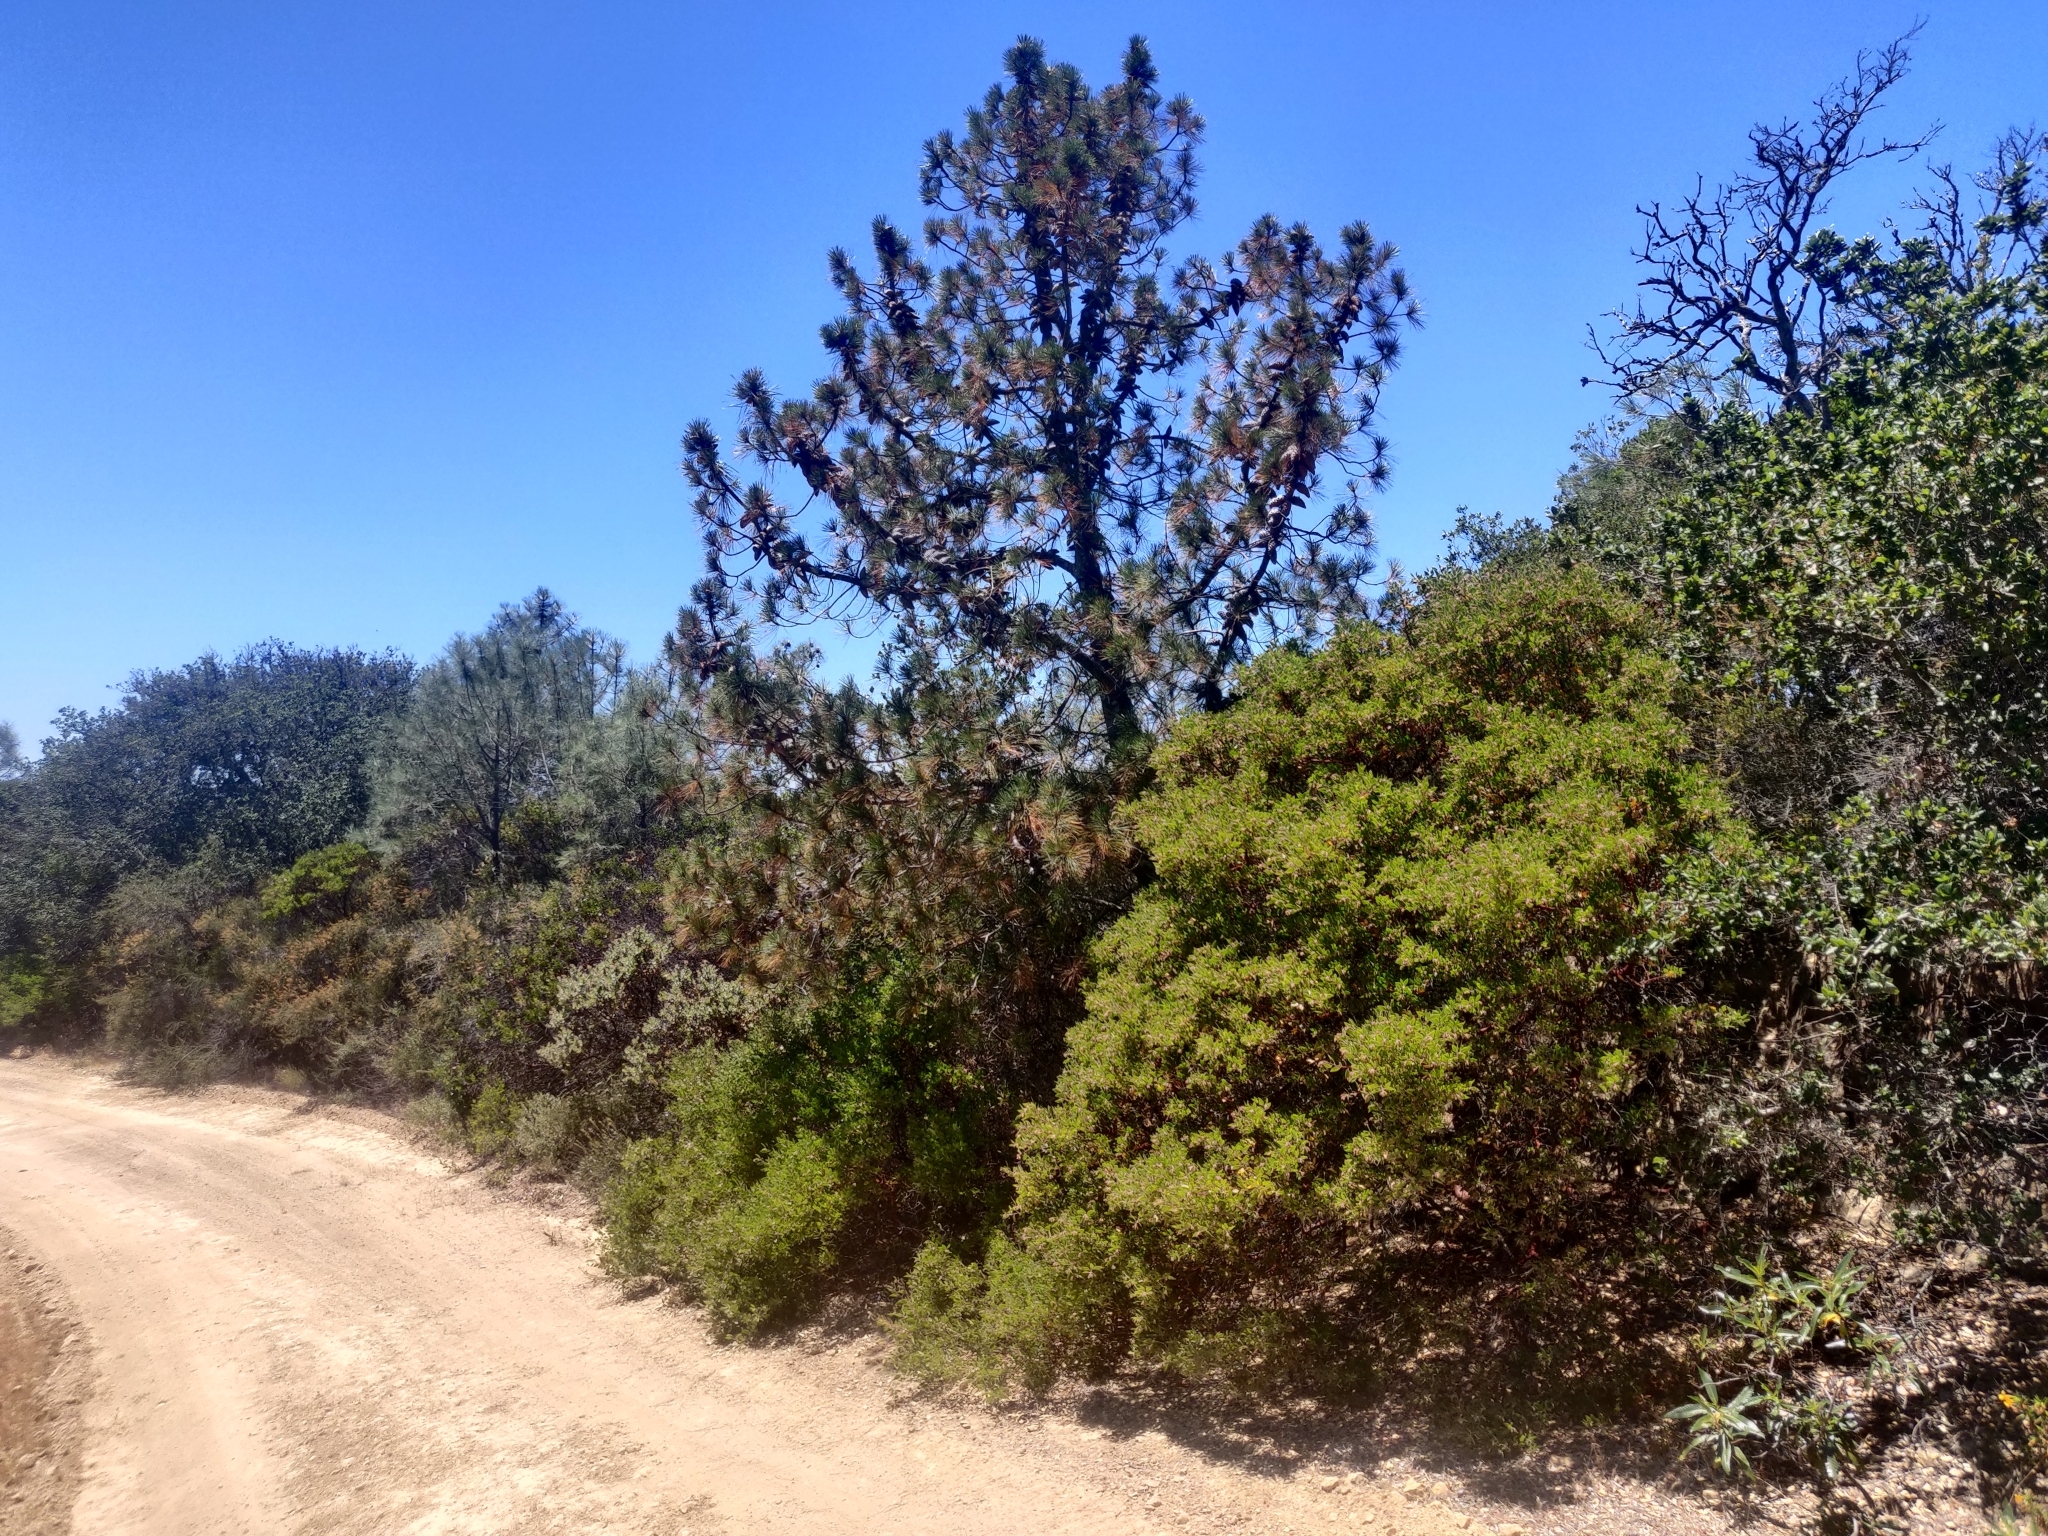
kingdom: Plantae
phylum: Tracheophyta
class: Pinopsida
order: Pinales
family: Pinaceae
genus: Pinus
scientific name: Pinus attenuata
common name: Knobcone pine
